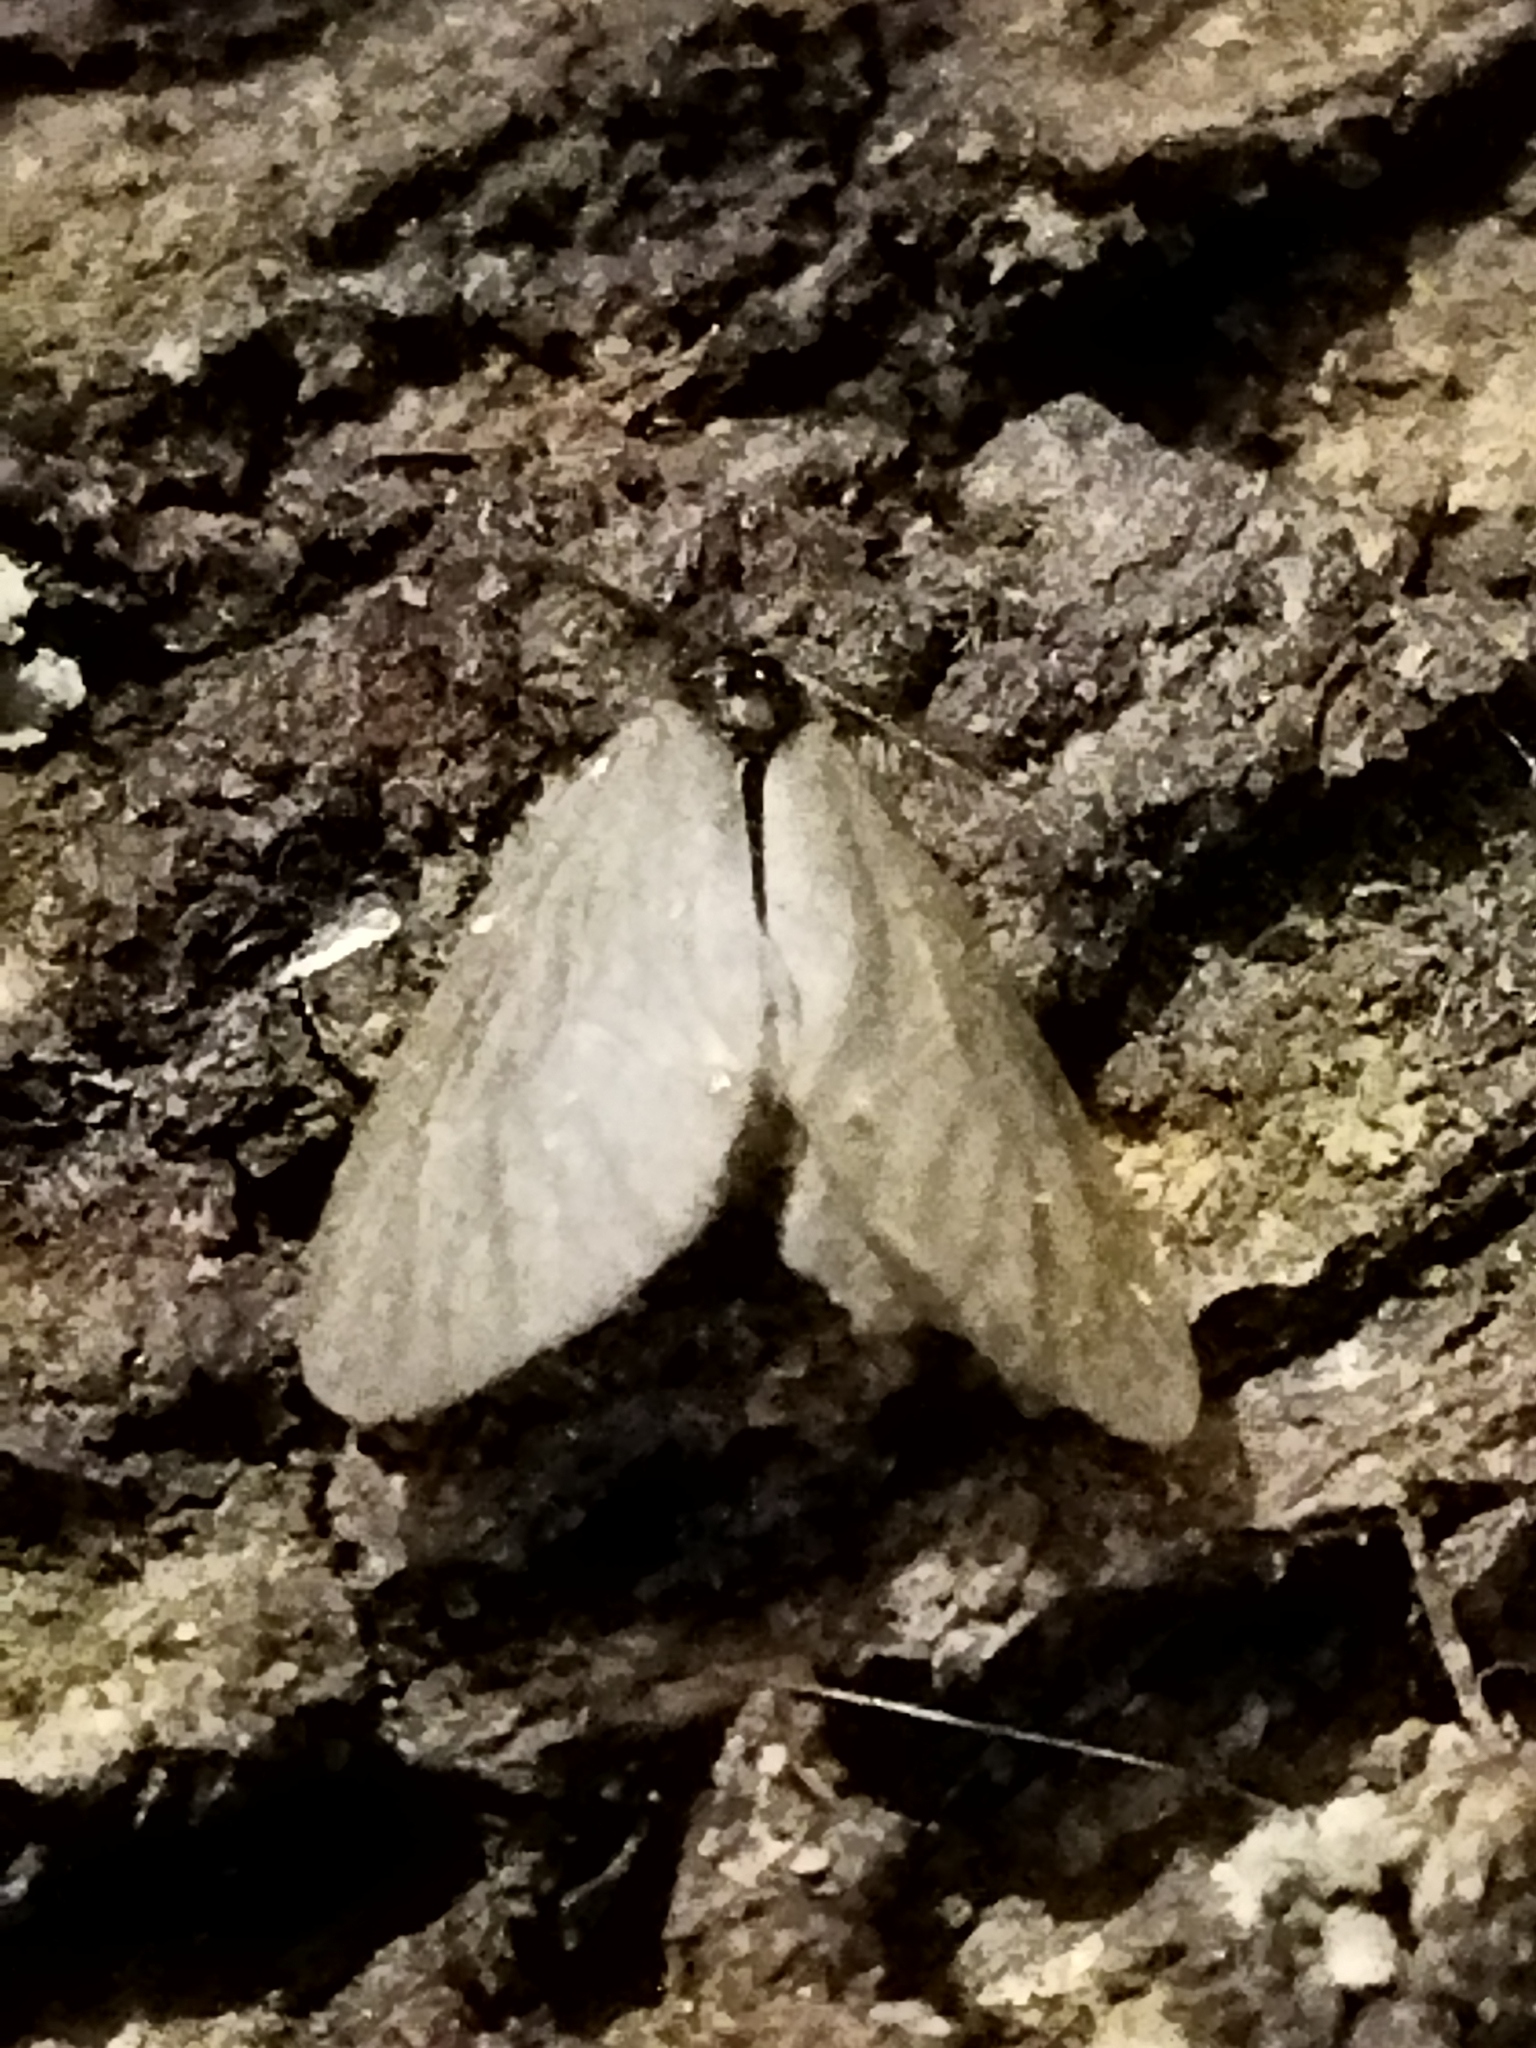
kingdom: Animalia
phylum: Arthropoda
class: Insecta
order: Lepidoptera
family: Psychidae
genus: Rebelia
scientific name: Rebelia perlucidella
